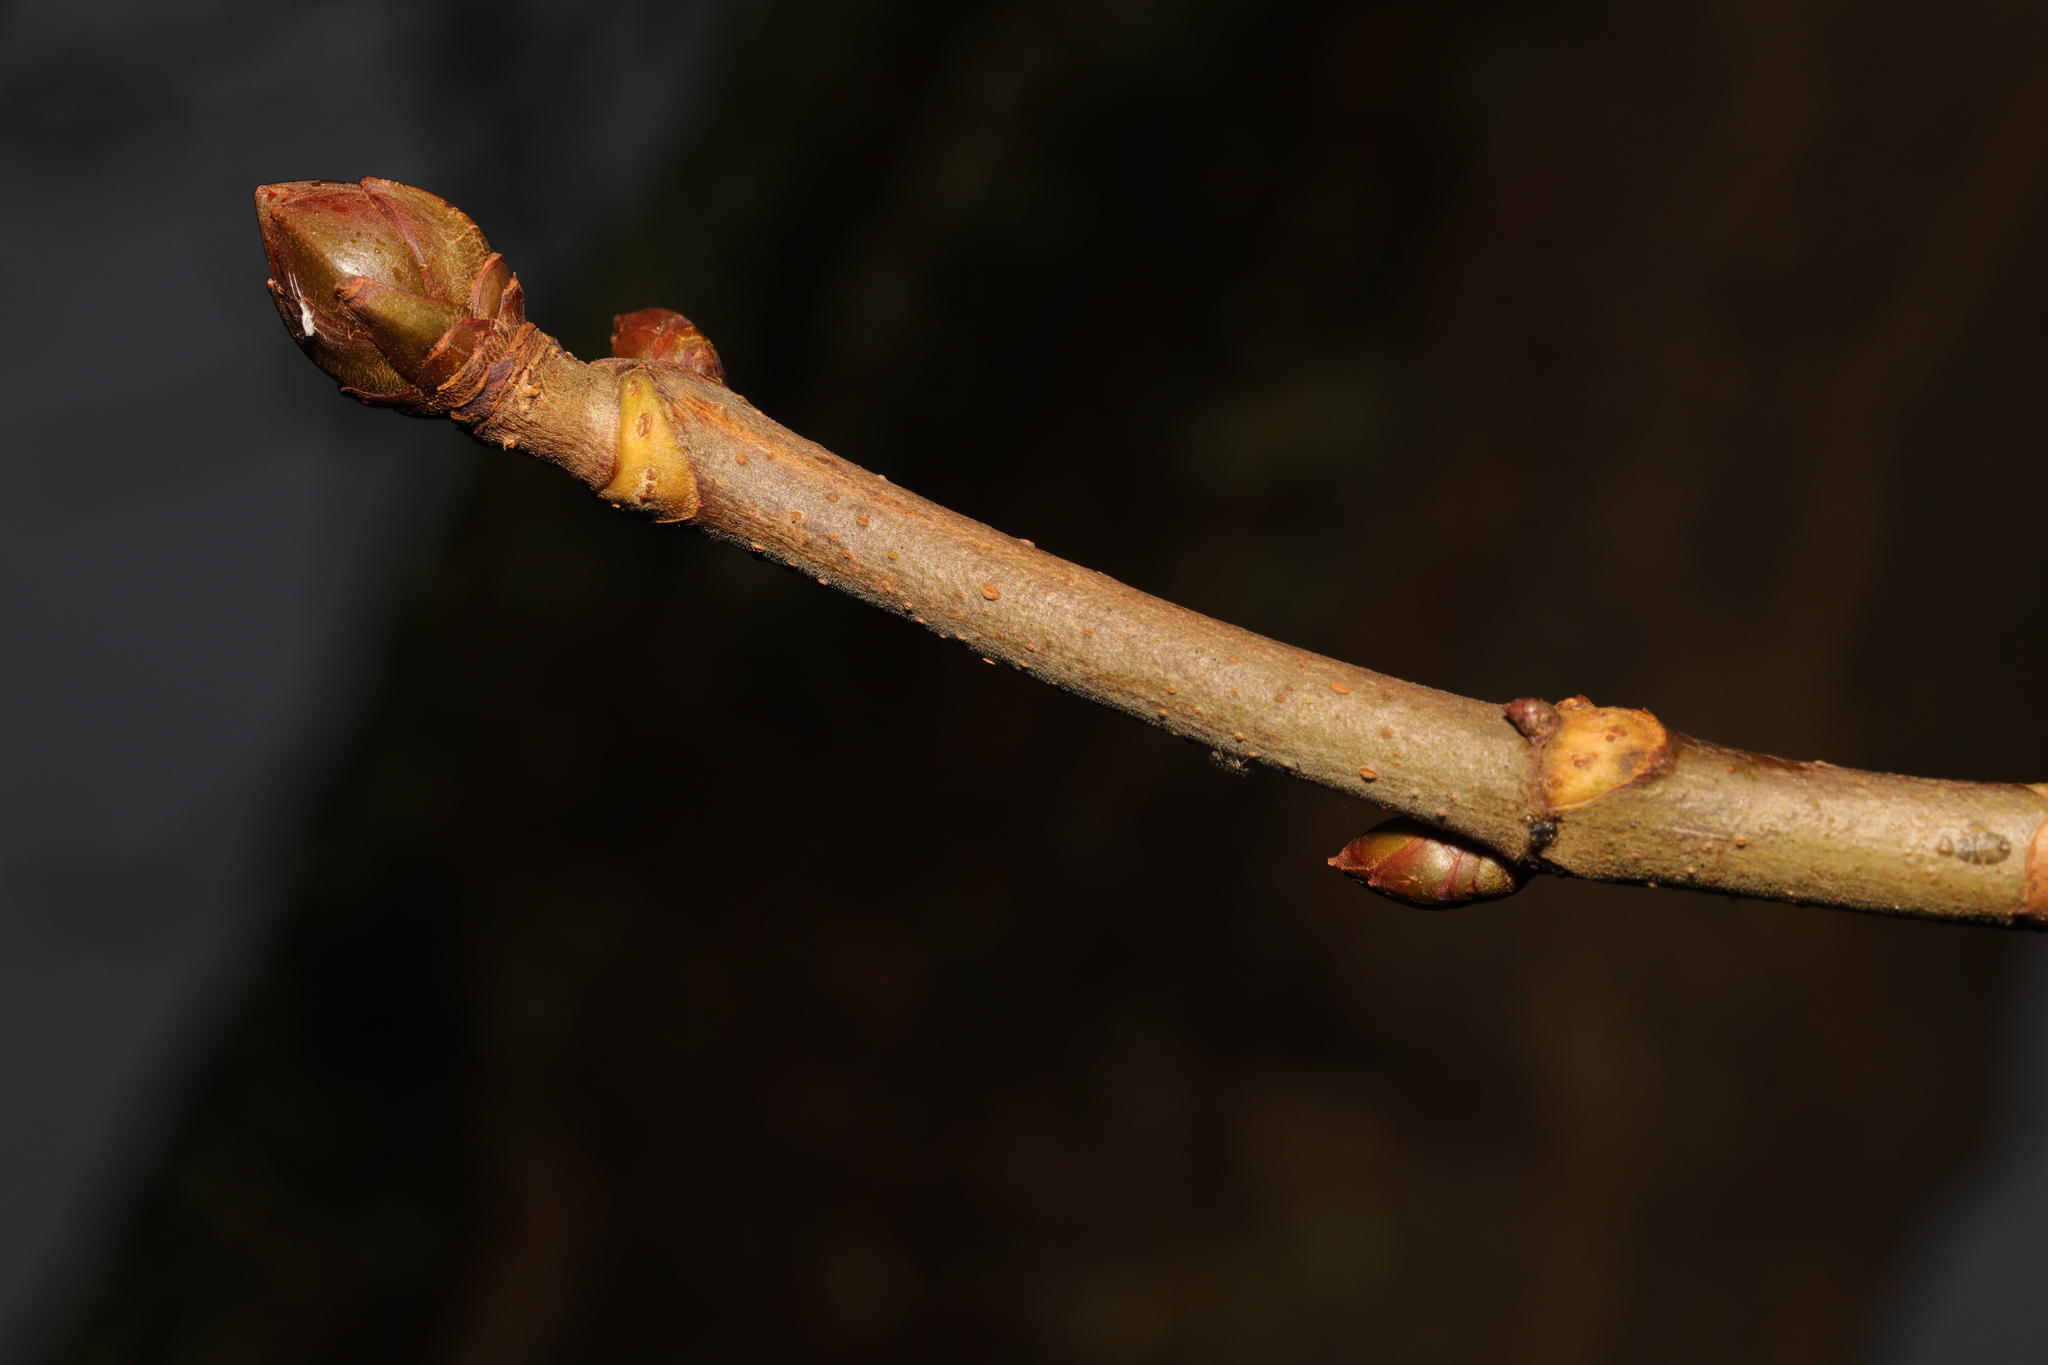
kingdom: Plantae
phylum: Tracheophyta
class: Magnoliopsida
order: Sapindales
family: Sapindaceae
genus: Aesculus
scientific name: Aesculus hippocastanum
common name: Horse-chestnut
